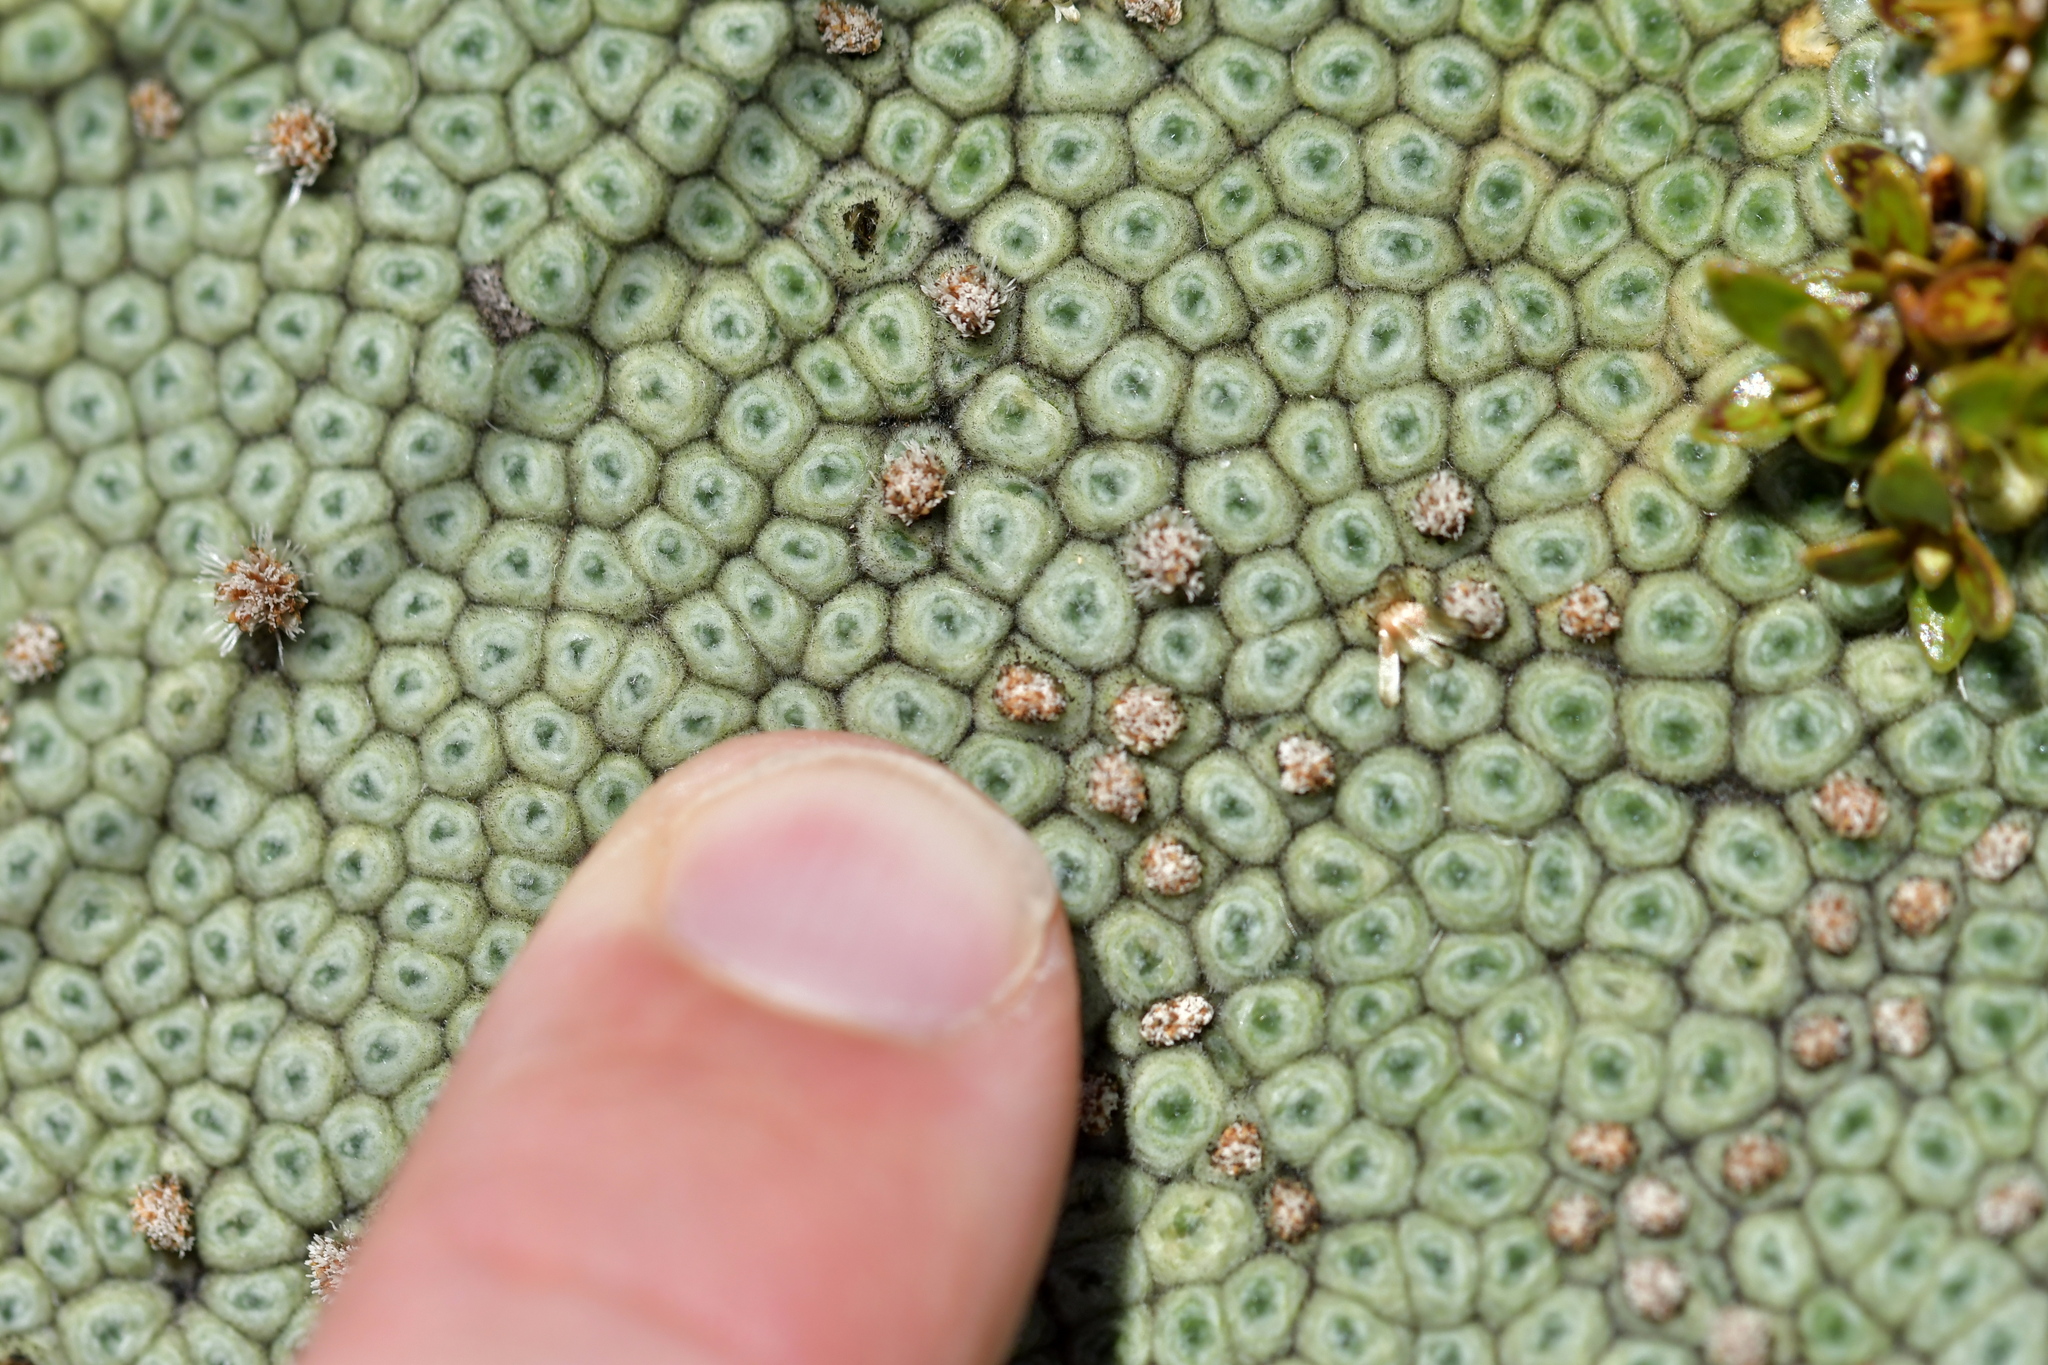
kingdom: Plantae
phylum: Tracheophyta
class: Magnoliopsida
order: Asterales
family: Asteraceae
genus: Raoulia
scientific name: Raoulia rubra
